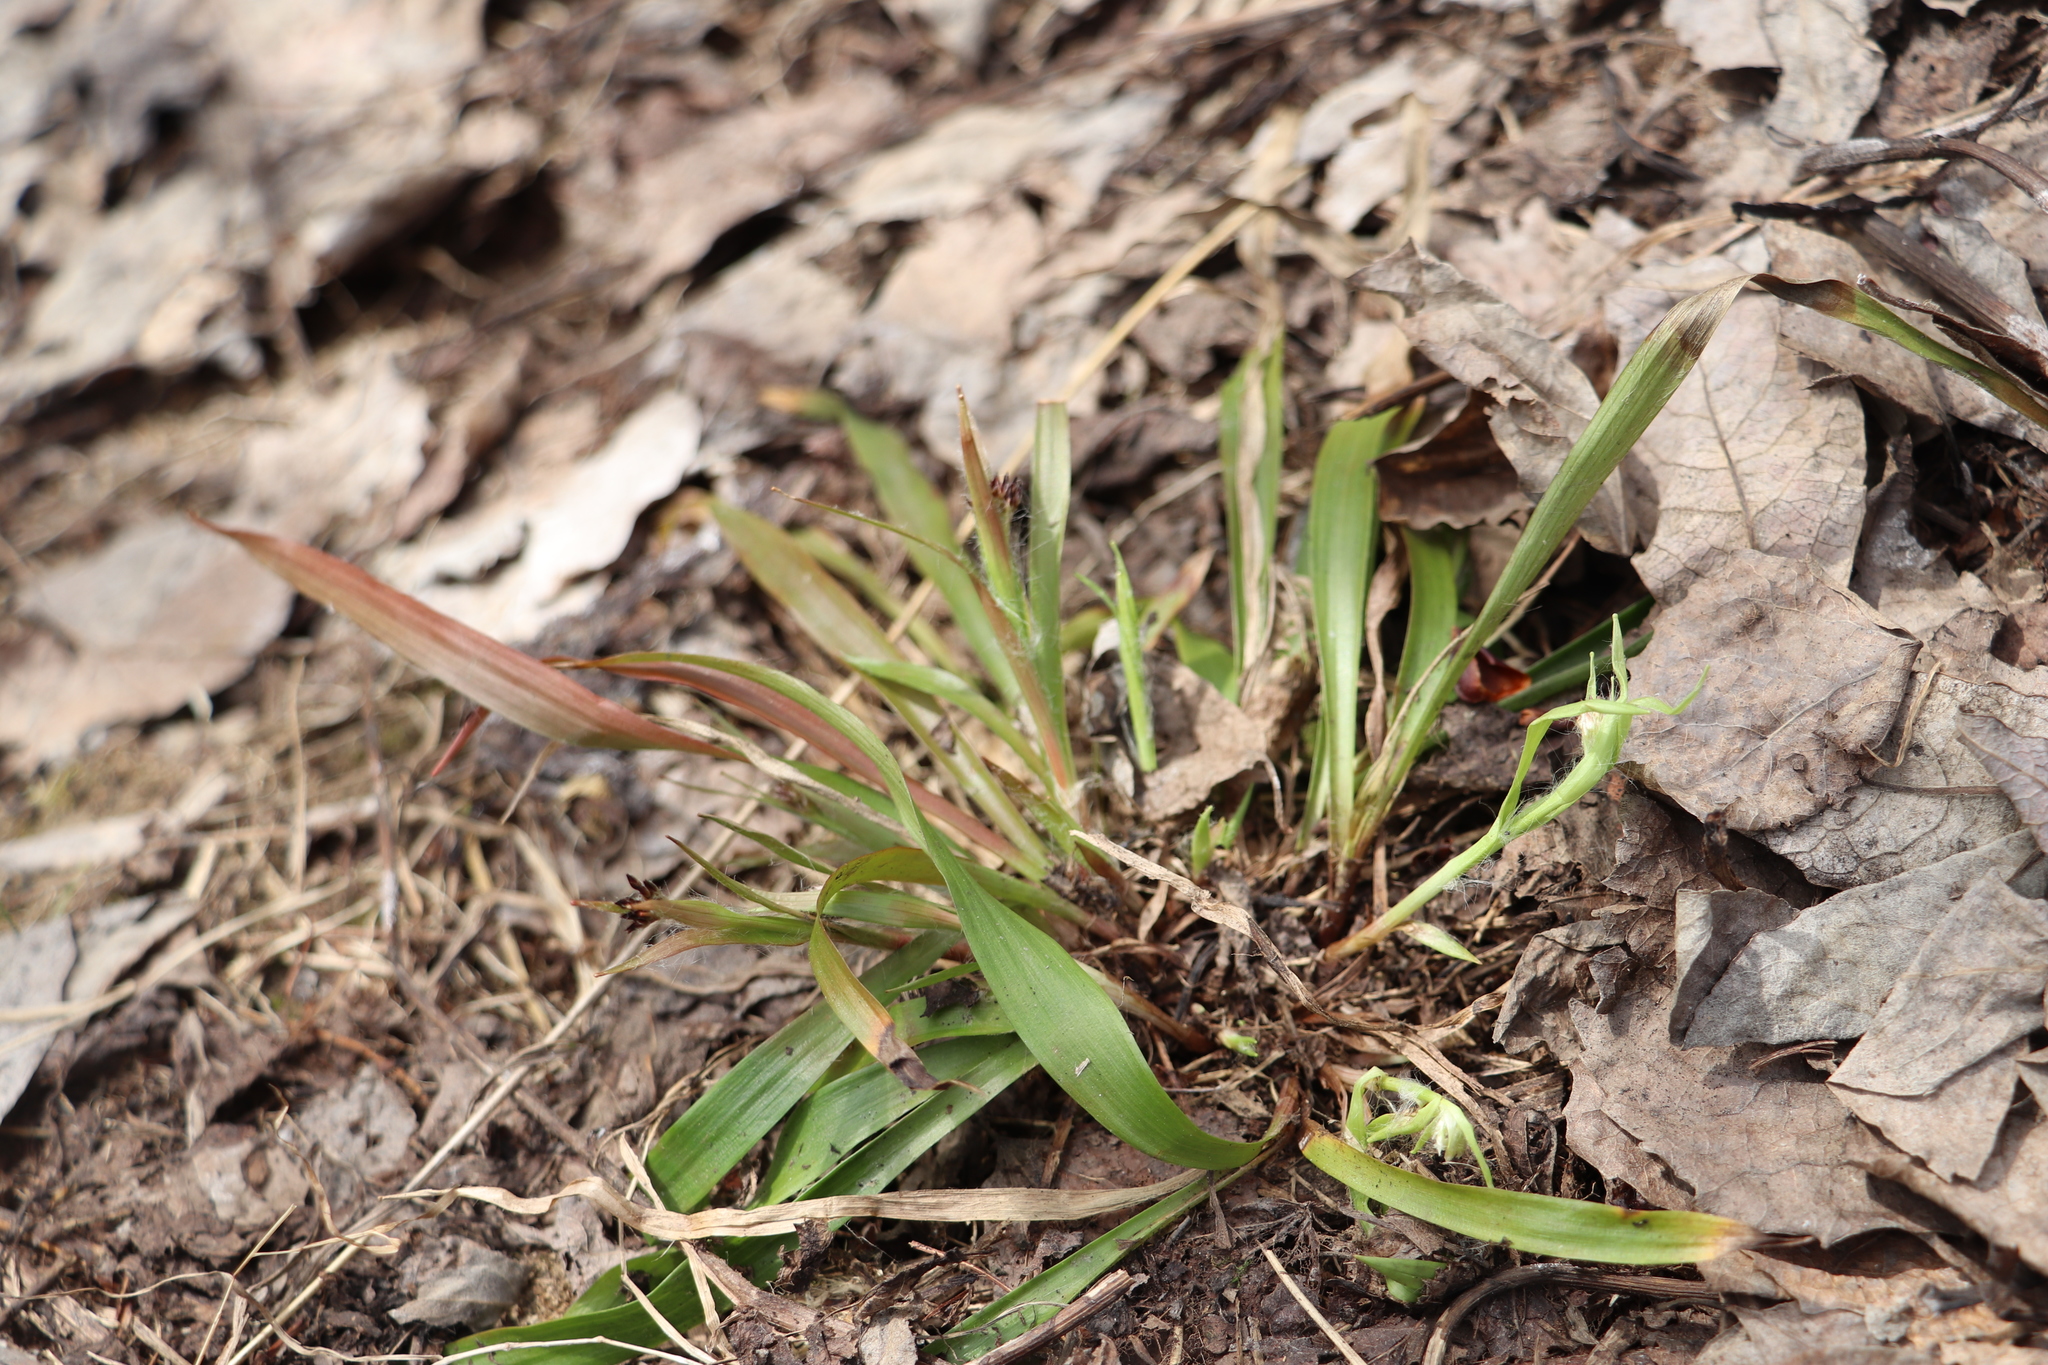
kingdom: Plantae
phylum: Tracheophyta
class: Liliopsida
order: Poales
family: Juncaceae
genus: Luzula
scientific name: Luzula pilosa
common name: Hairy wood-rush
